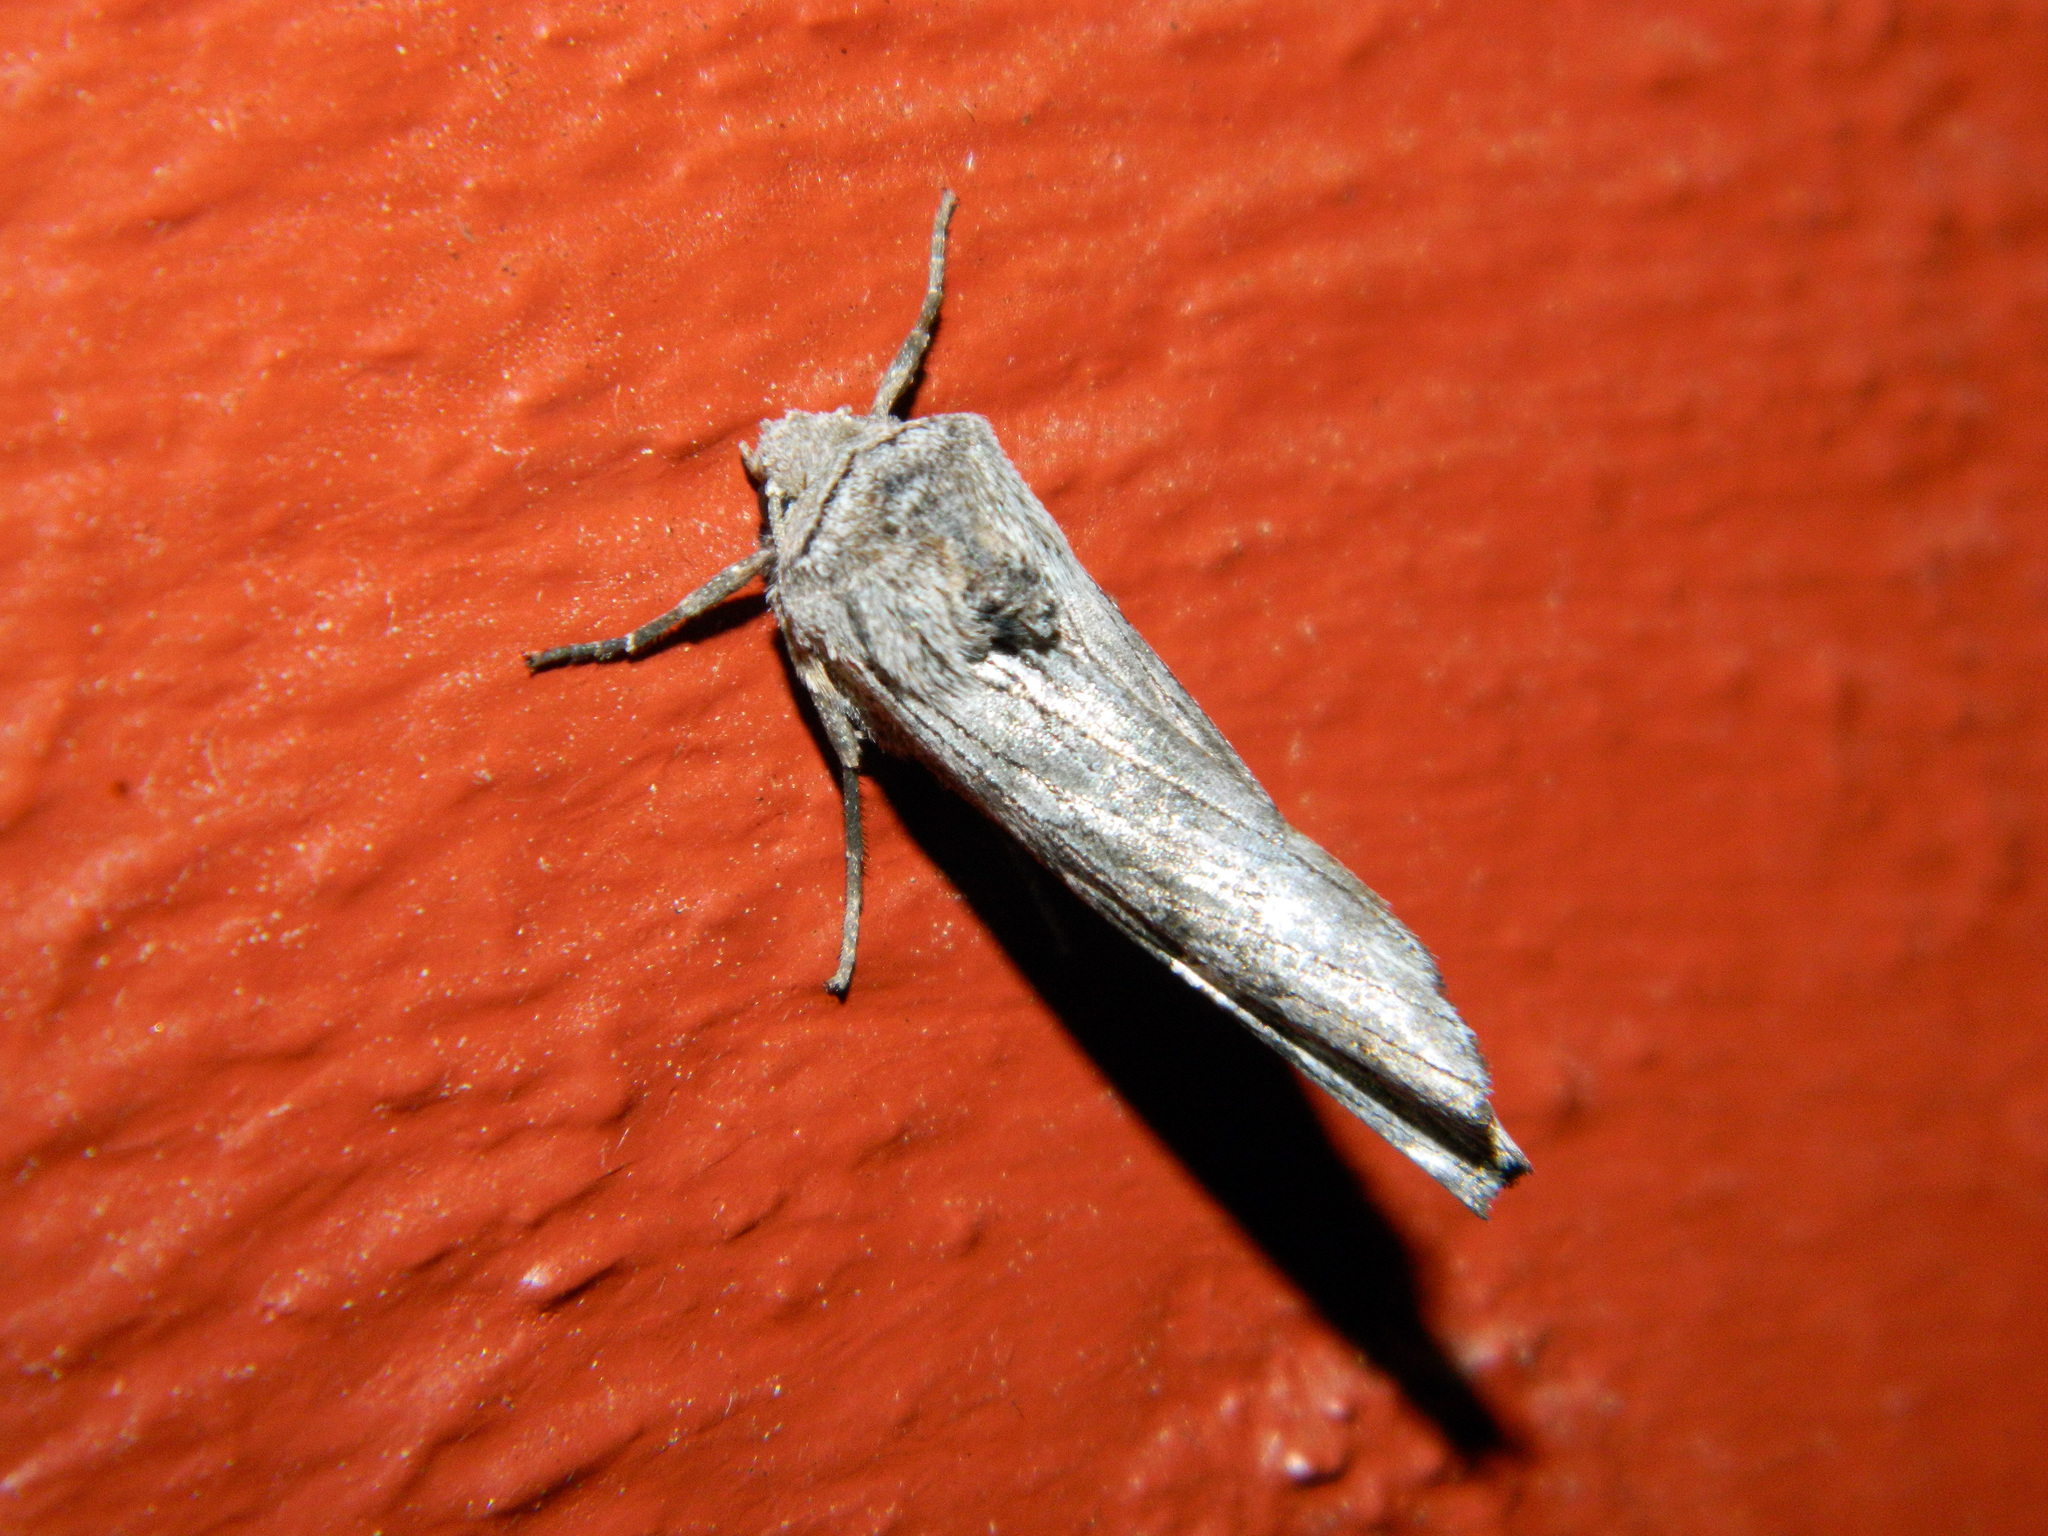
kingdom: Animalia
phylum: Arthropoda
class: Insecta
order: Lepidoptera
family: Noctuidae
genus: Xylena
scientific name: Xylena germana
